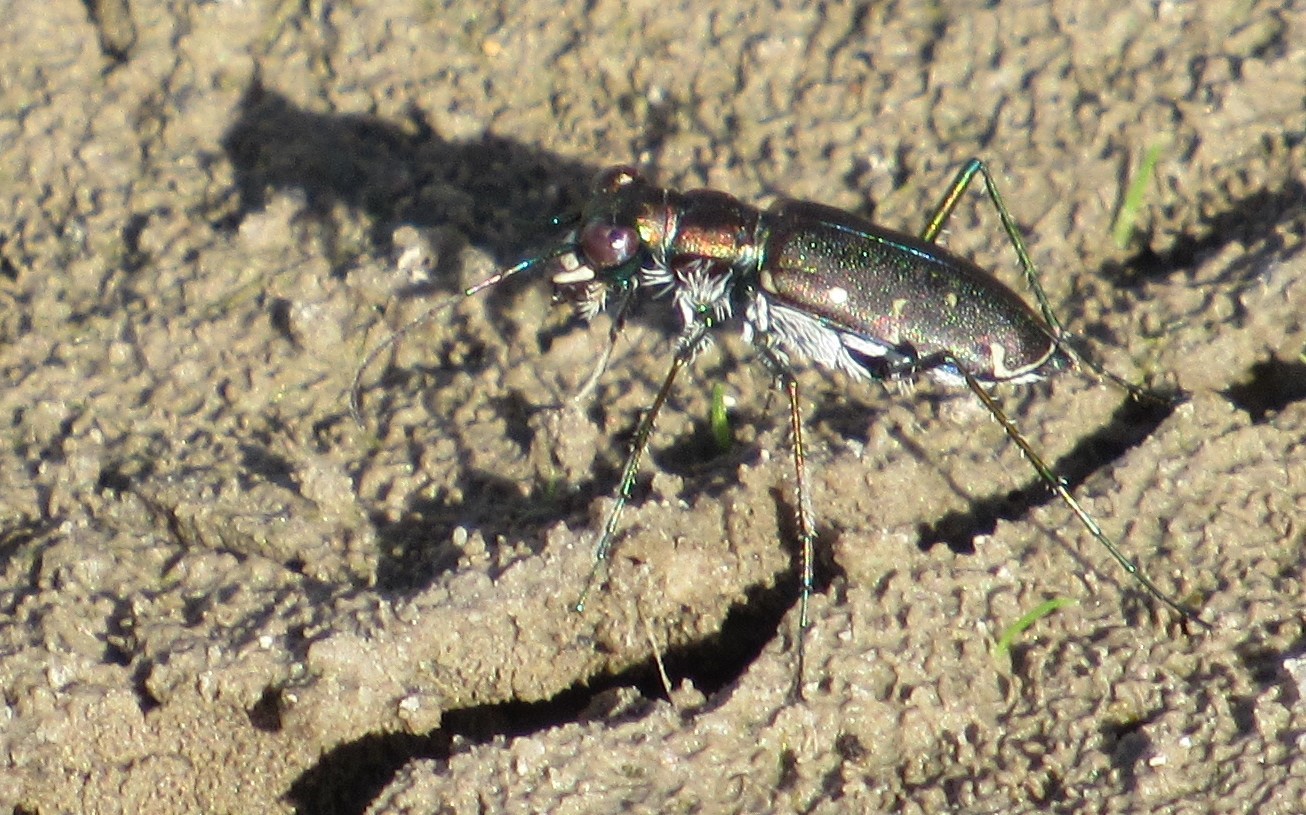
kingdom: Animalia
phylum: Arthropoda
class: Insecta
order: Coleoptera
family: Carabidae
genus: Cicindela
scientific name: Cicindela punctulata
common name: Punctured tiger beetle
